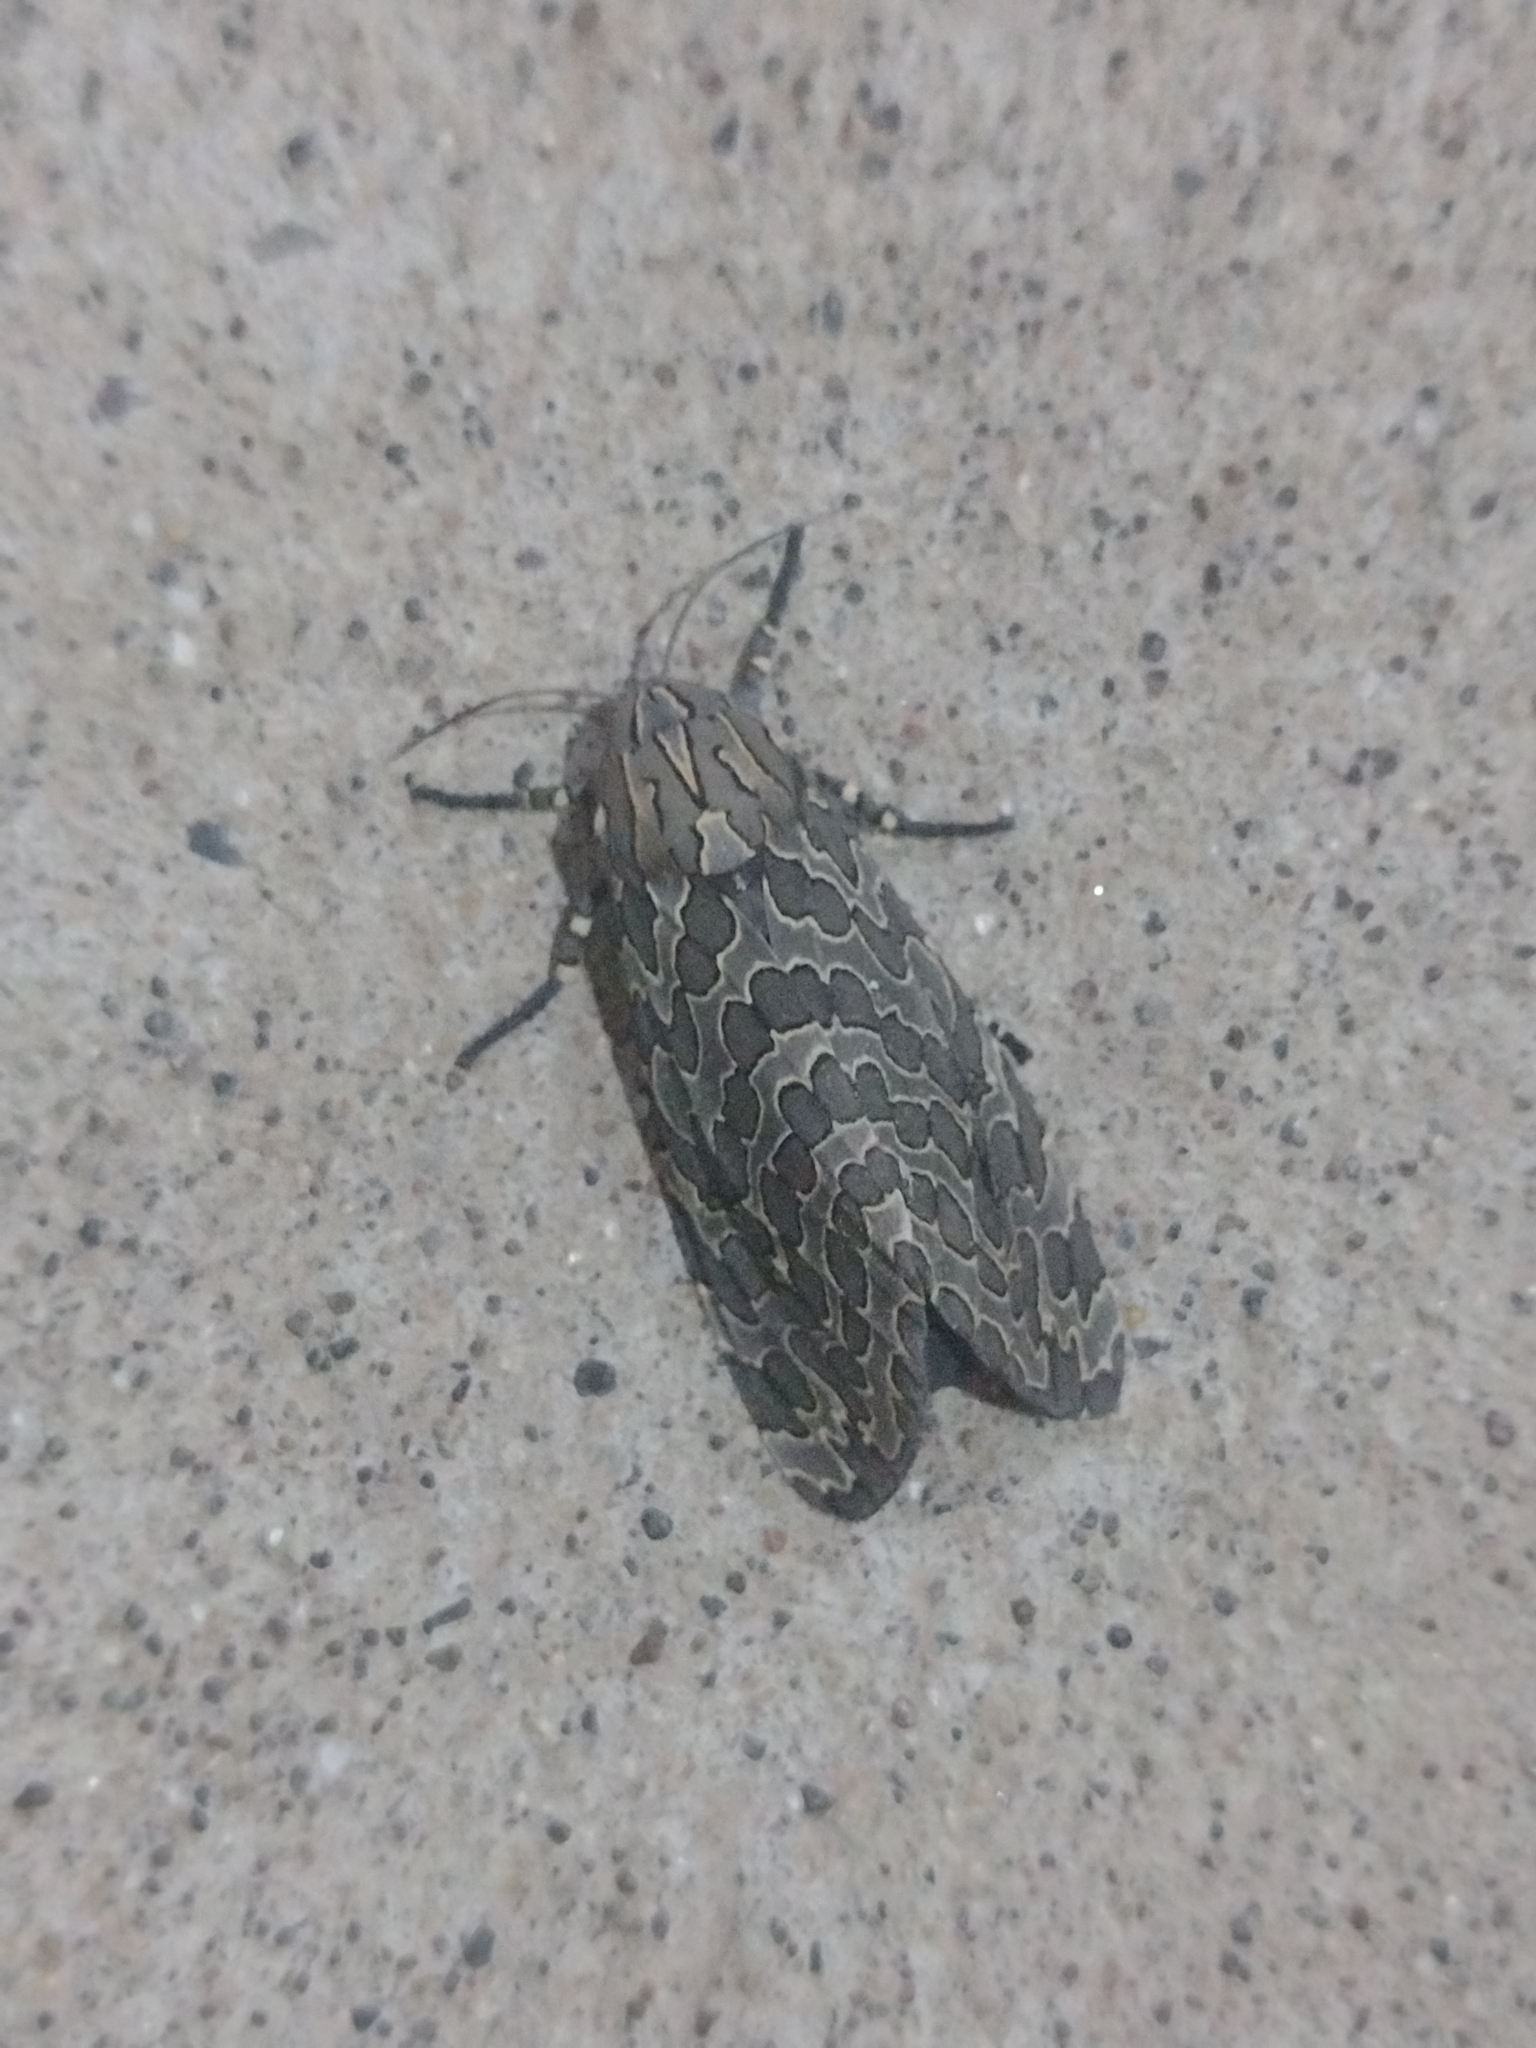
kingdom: Animalia
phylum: Arthropoda
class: Insecta
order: Lepidoptera
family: Erebidae
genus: Hypercompe
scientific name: Hypercompe indecisa
